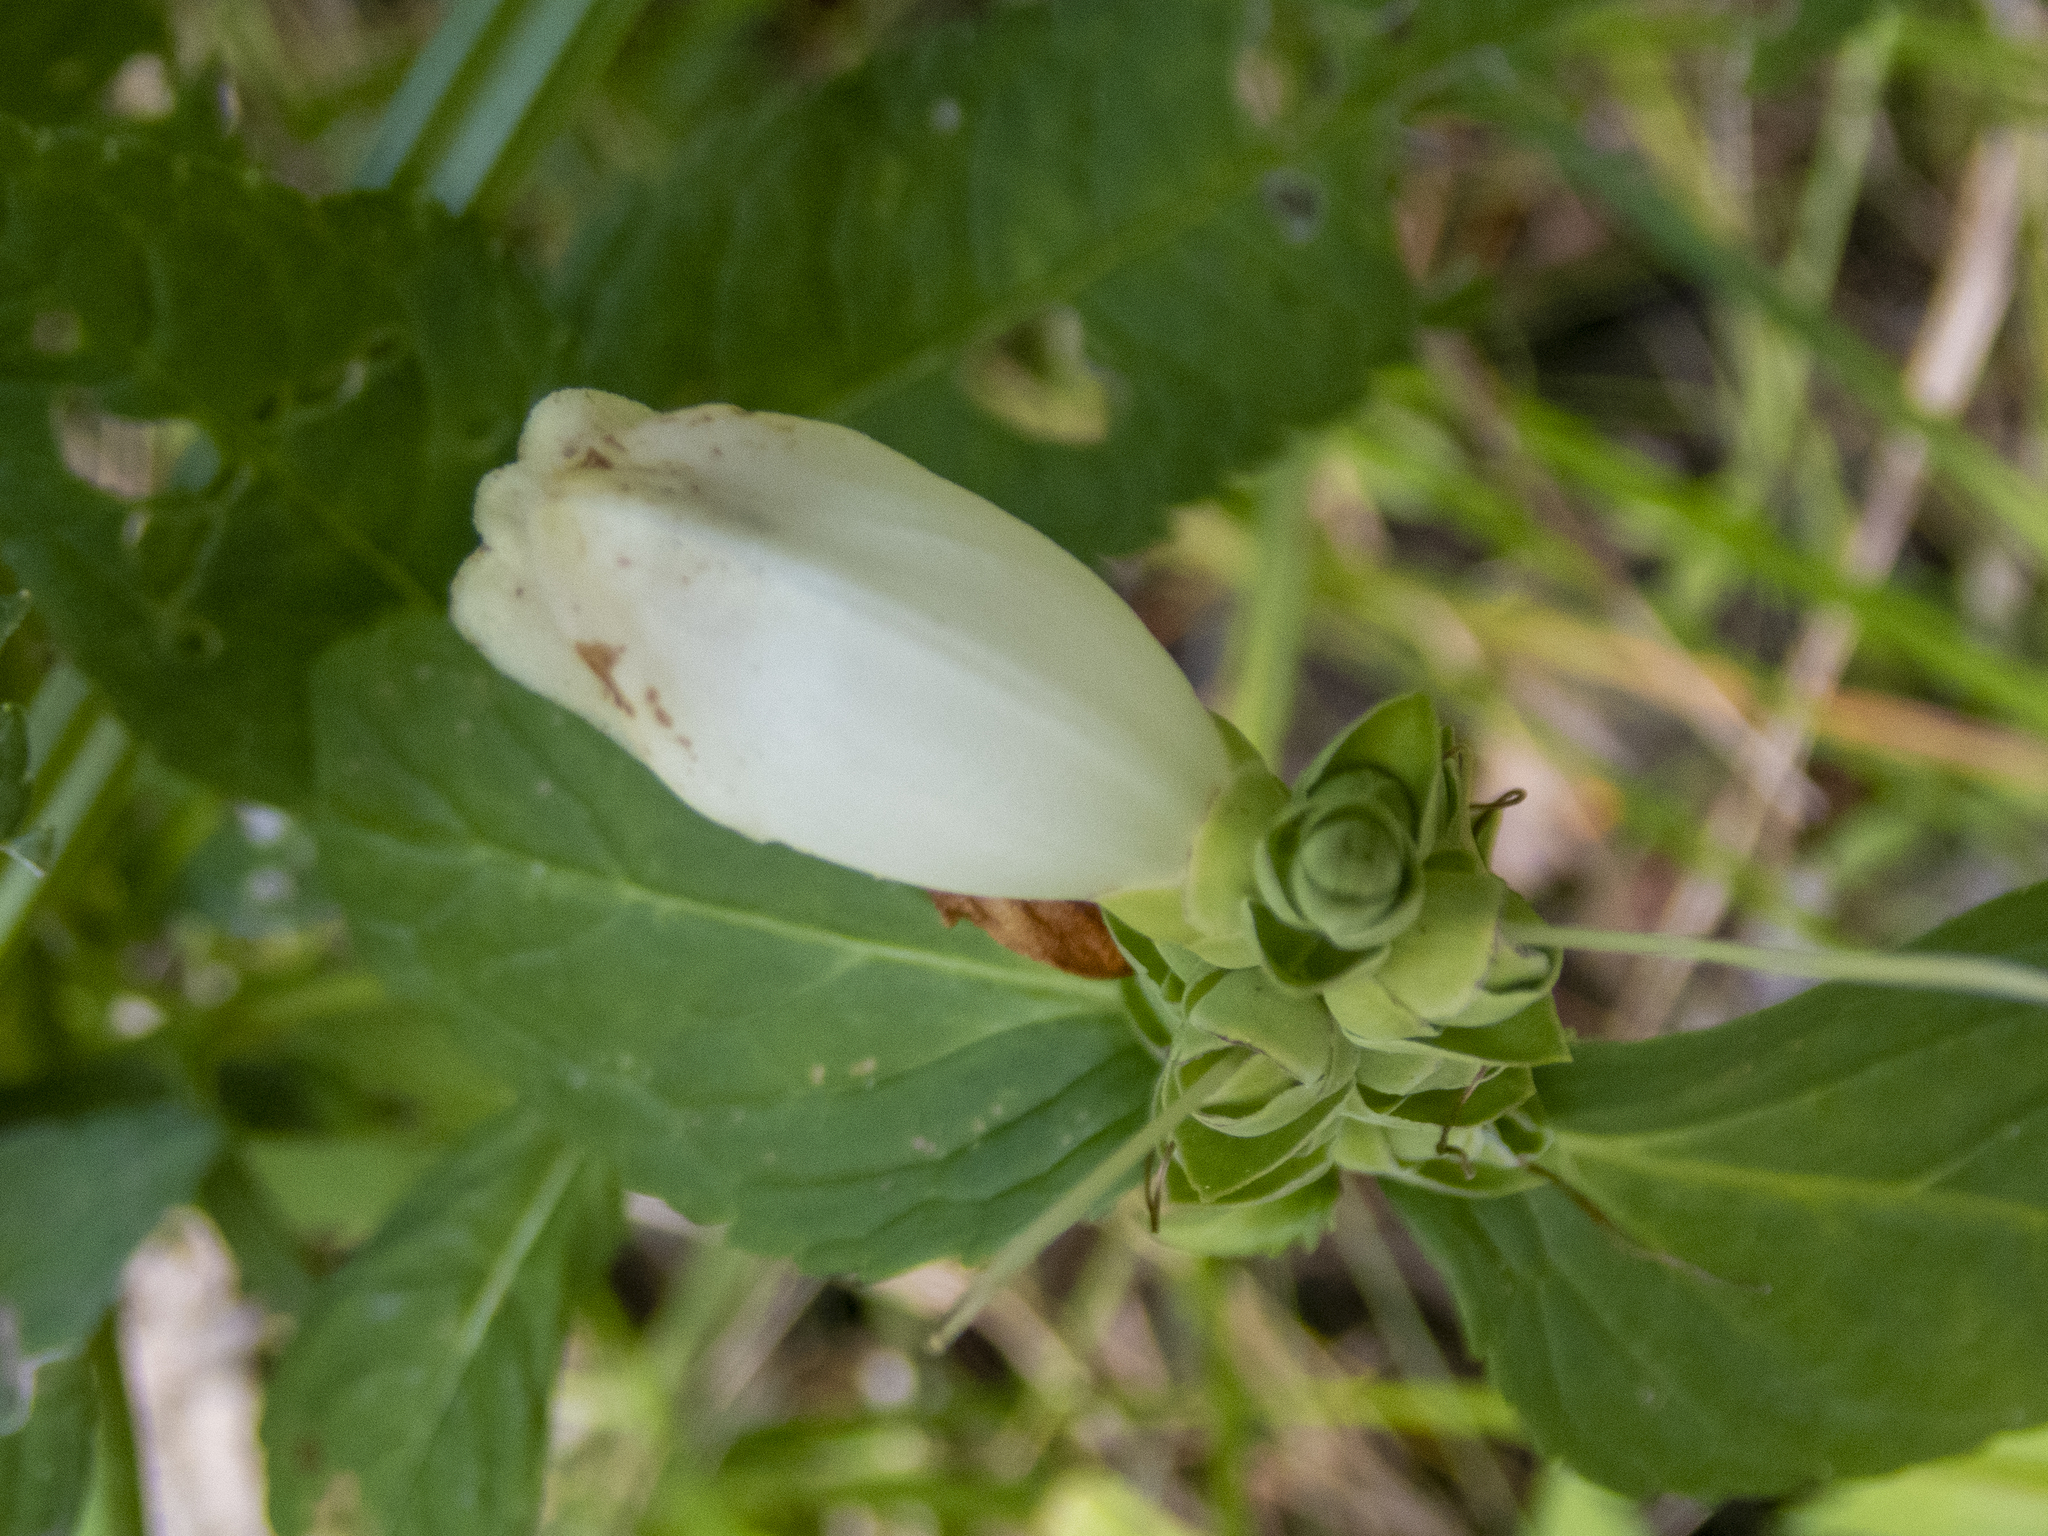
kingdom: Plantae
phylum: Tracheophyta
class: Magnoliopsida
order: Lamiales
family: Plantaginaceae
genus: Chelone
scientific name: Chelone glabra
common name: Snakehead
